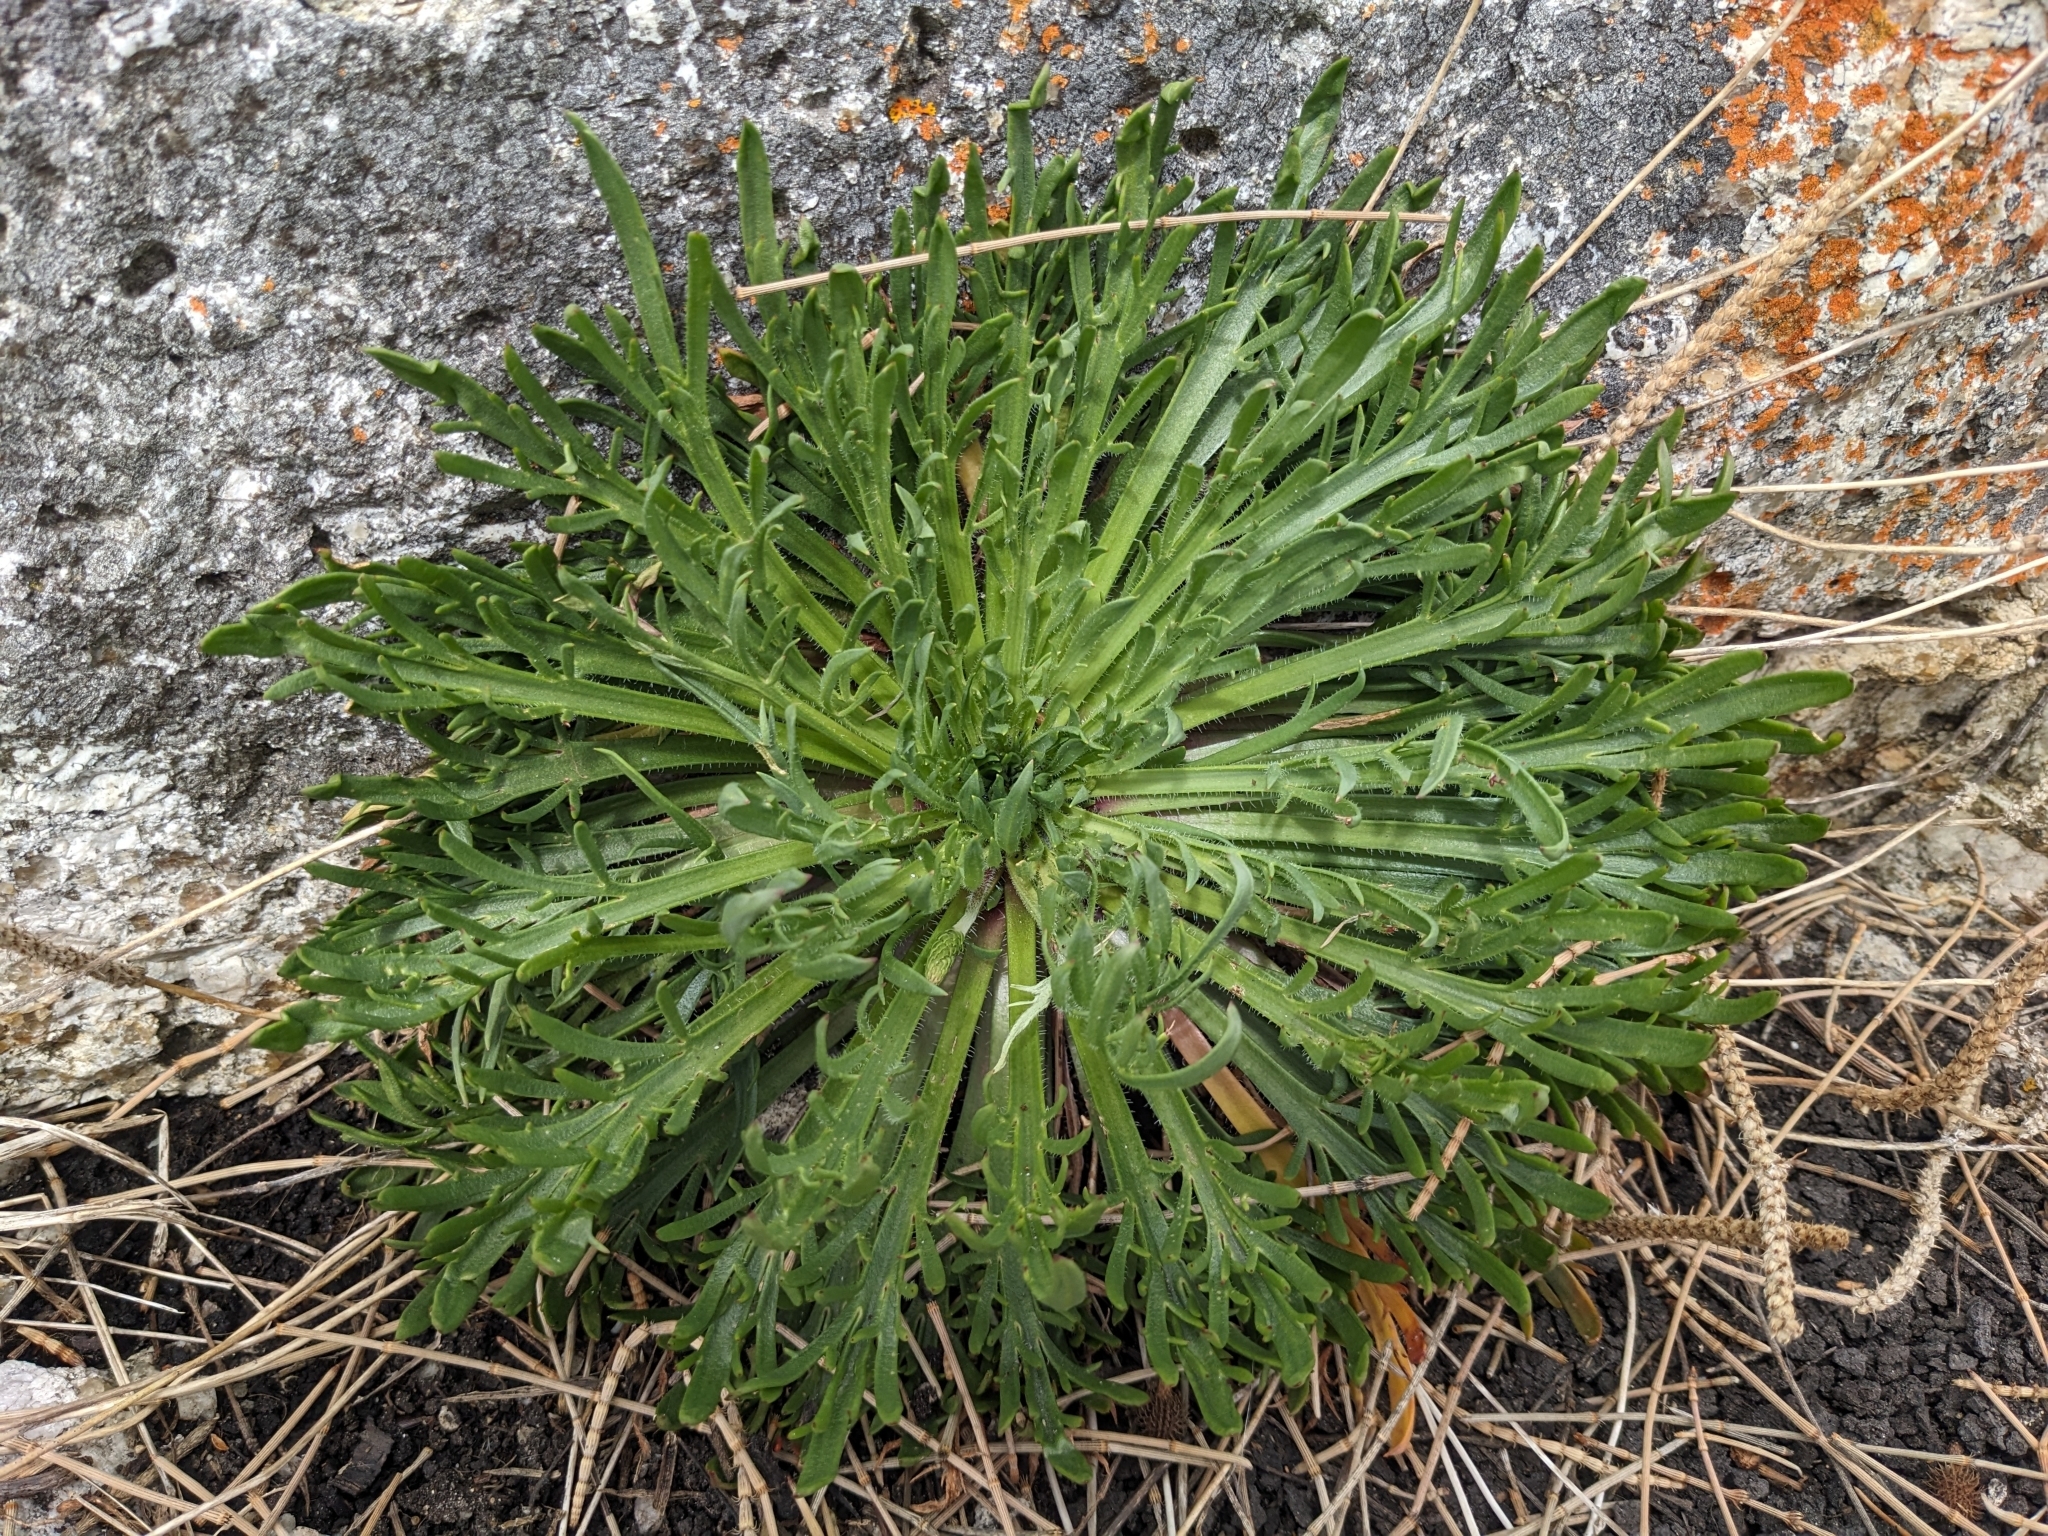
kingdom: Plantae
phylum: Tracheophyta
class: Magnoliopsida
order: Lamiales
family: Plantaginaceae
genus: Plantago
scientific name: Plantago coronopus
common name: Buck's-horn plantain
